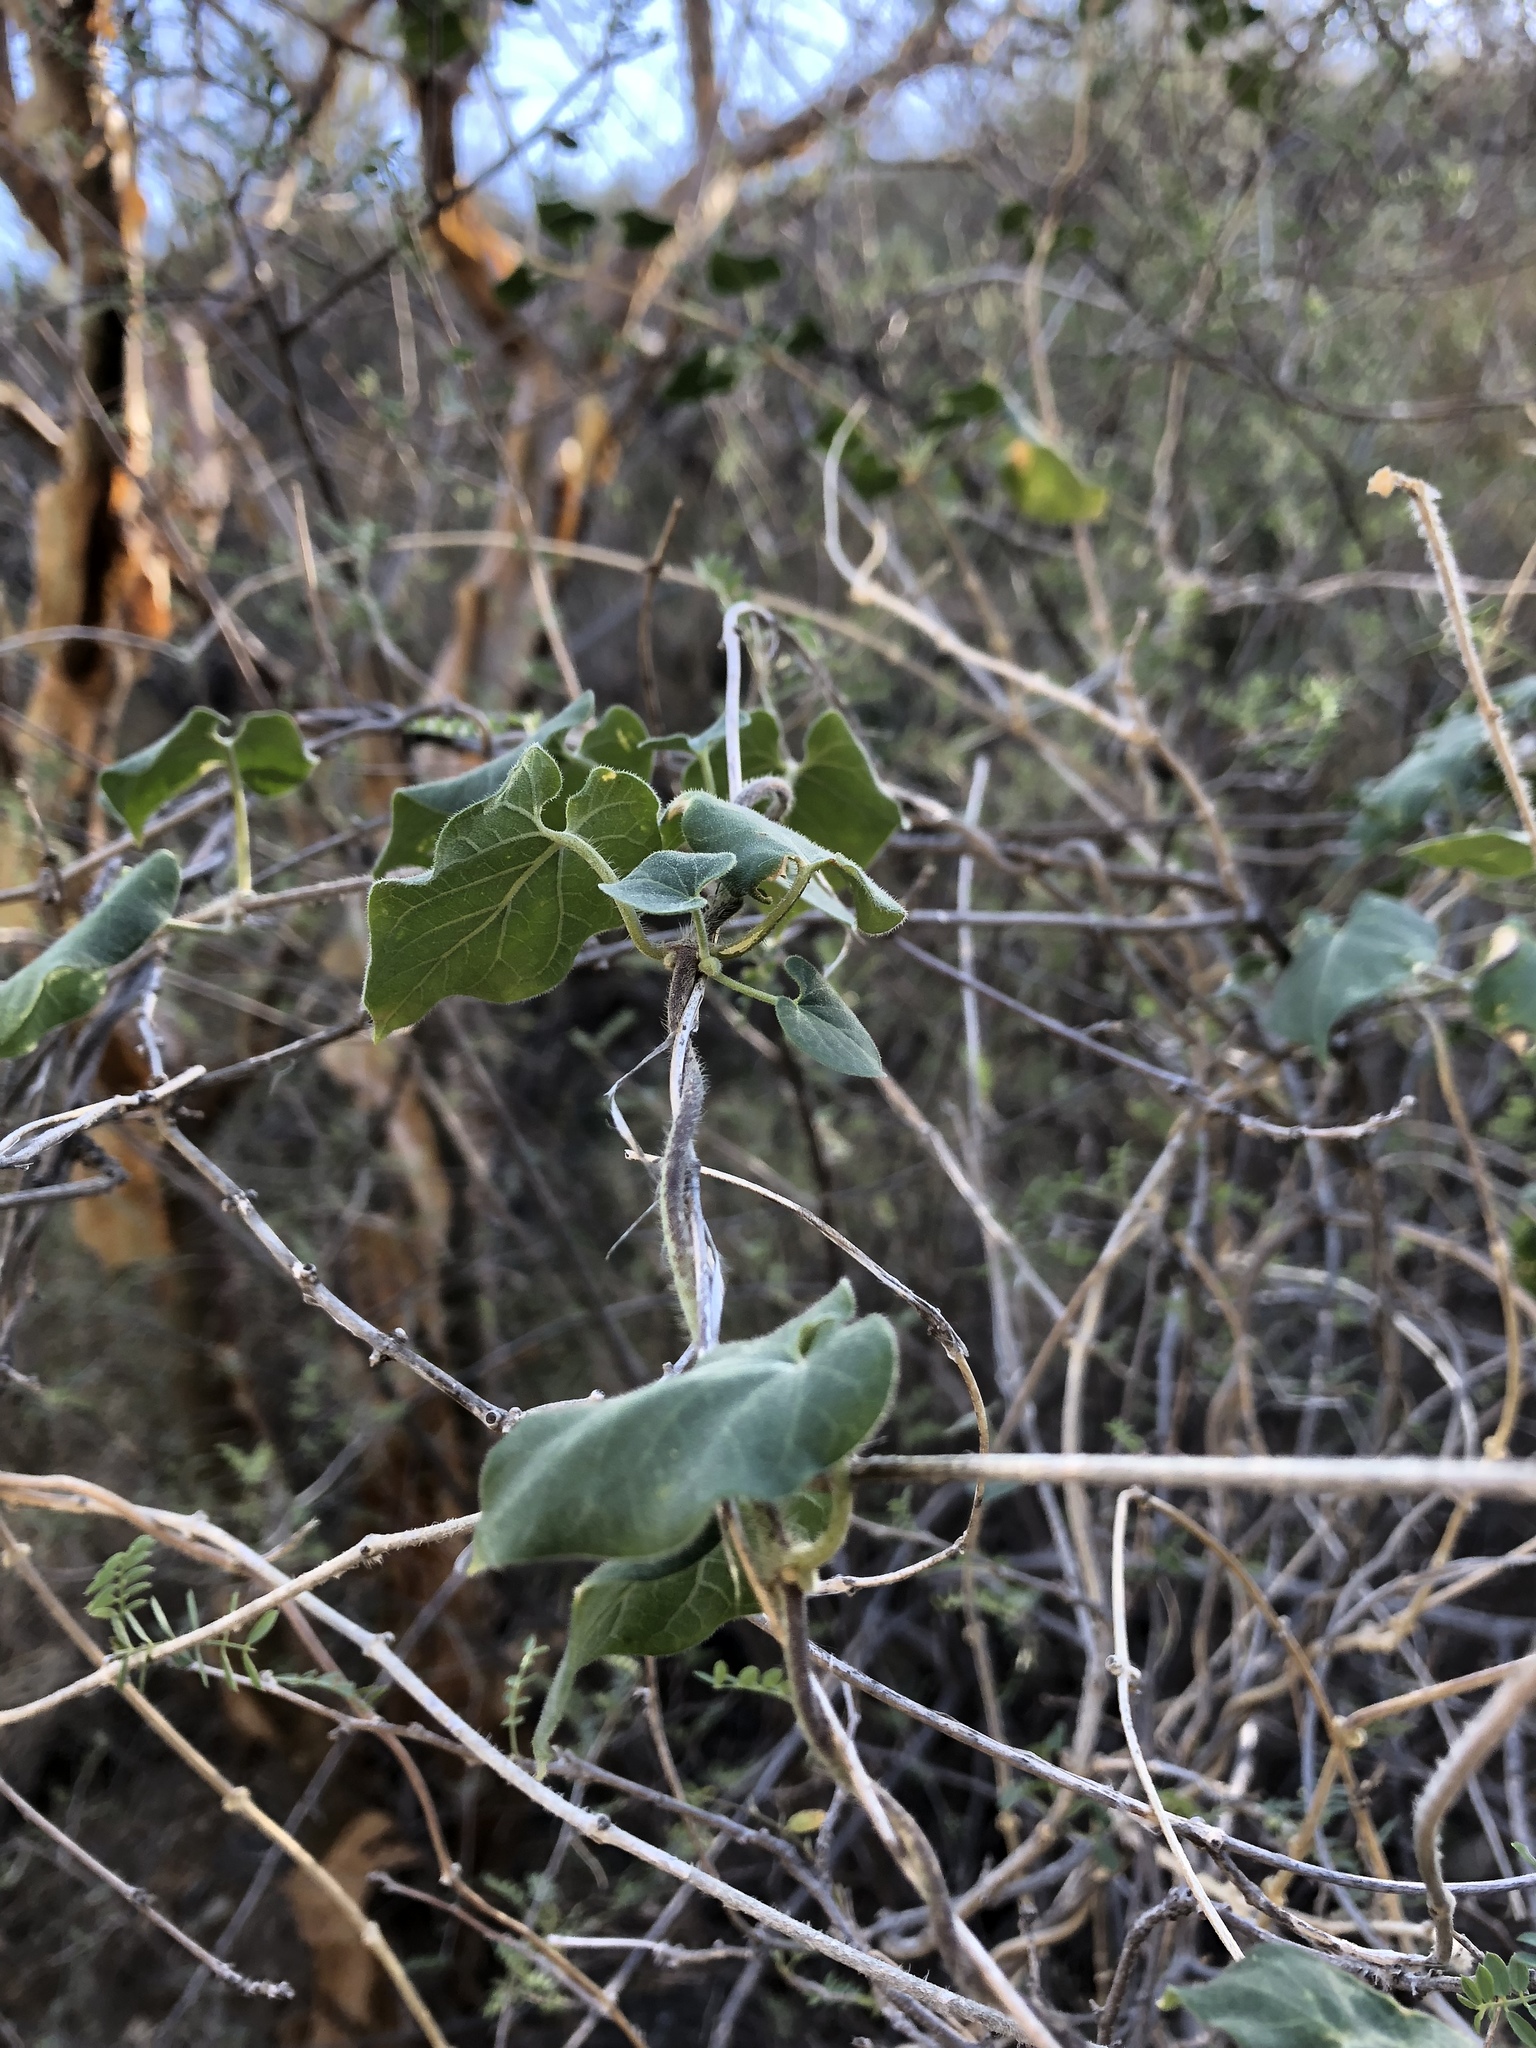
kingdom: Plantae
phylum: Tracheophyta
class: Magnoliopsida
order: Gentianales
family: Apocynaceae
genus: Polystemma
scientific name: Polystemma cordifolium
